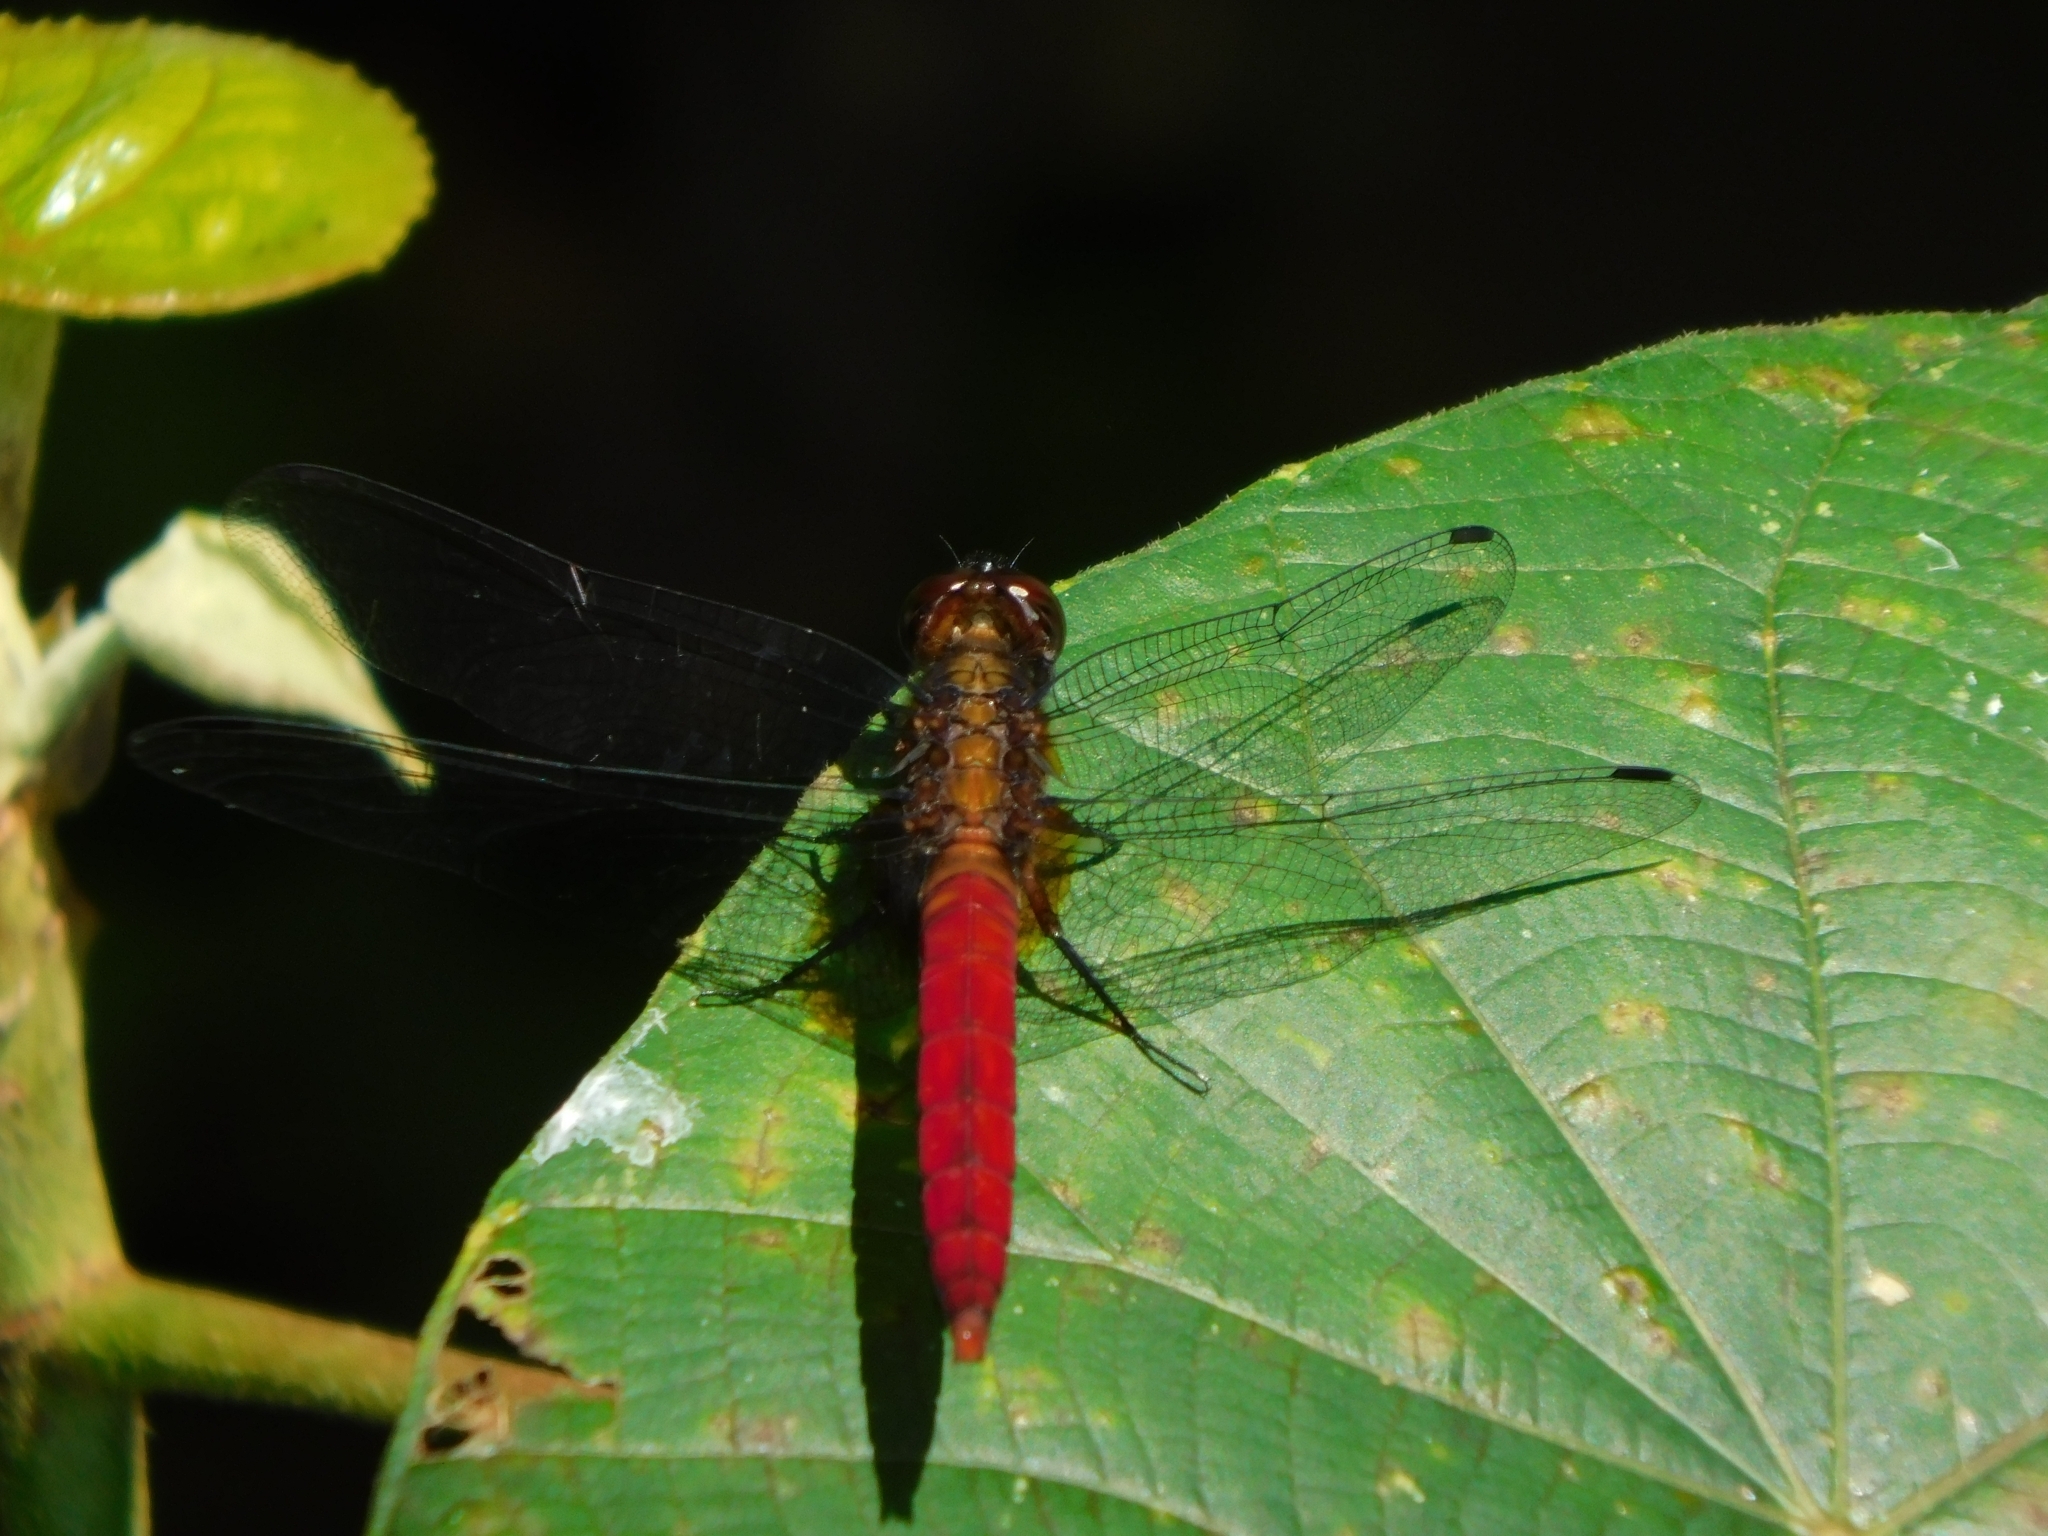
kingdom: Animalia
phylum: Arthropoda
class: Insecta
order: Odonata
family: Libellulidae
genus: Orthetrum
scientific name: Orthetrum chrysis
